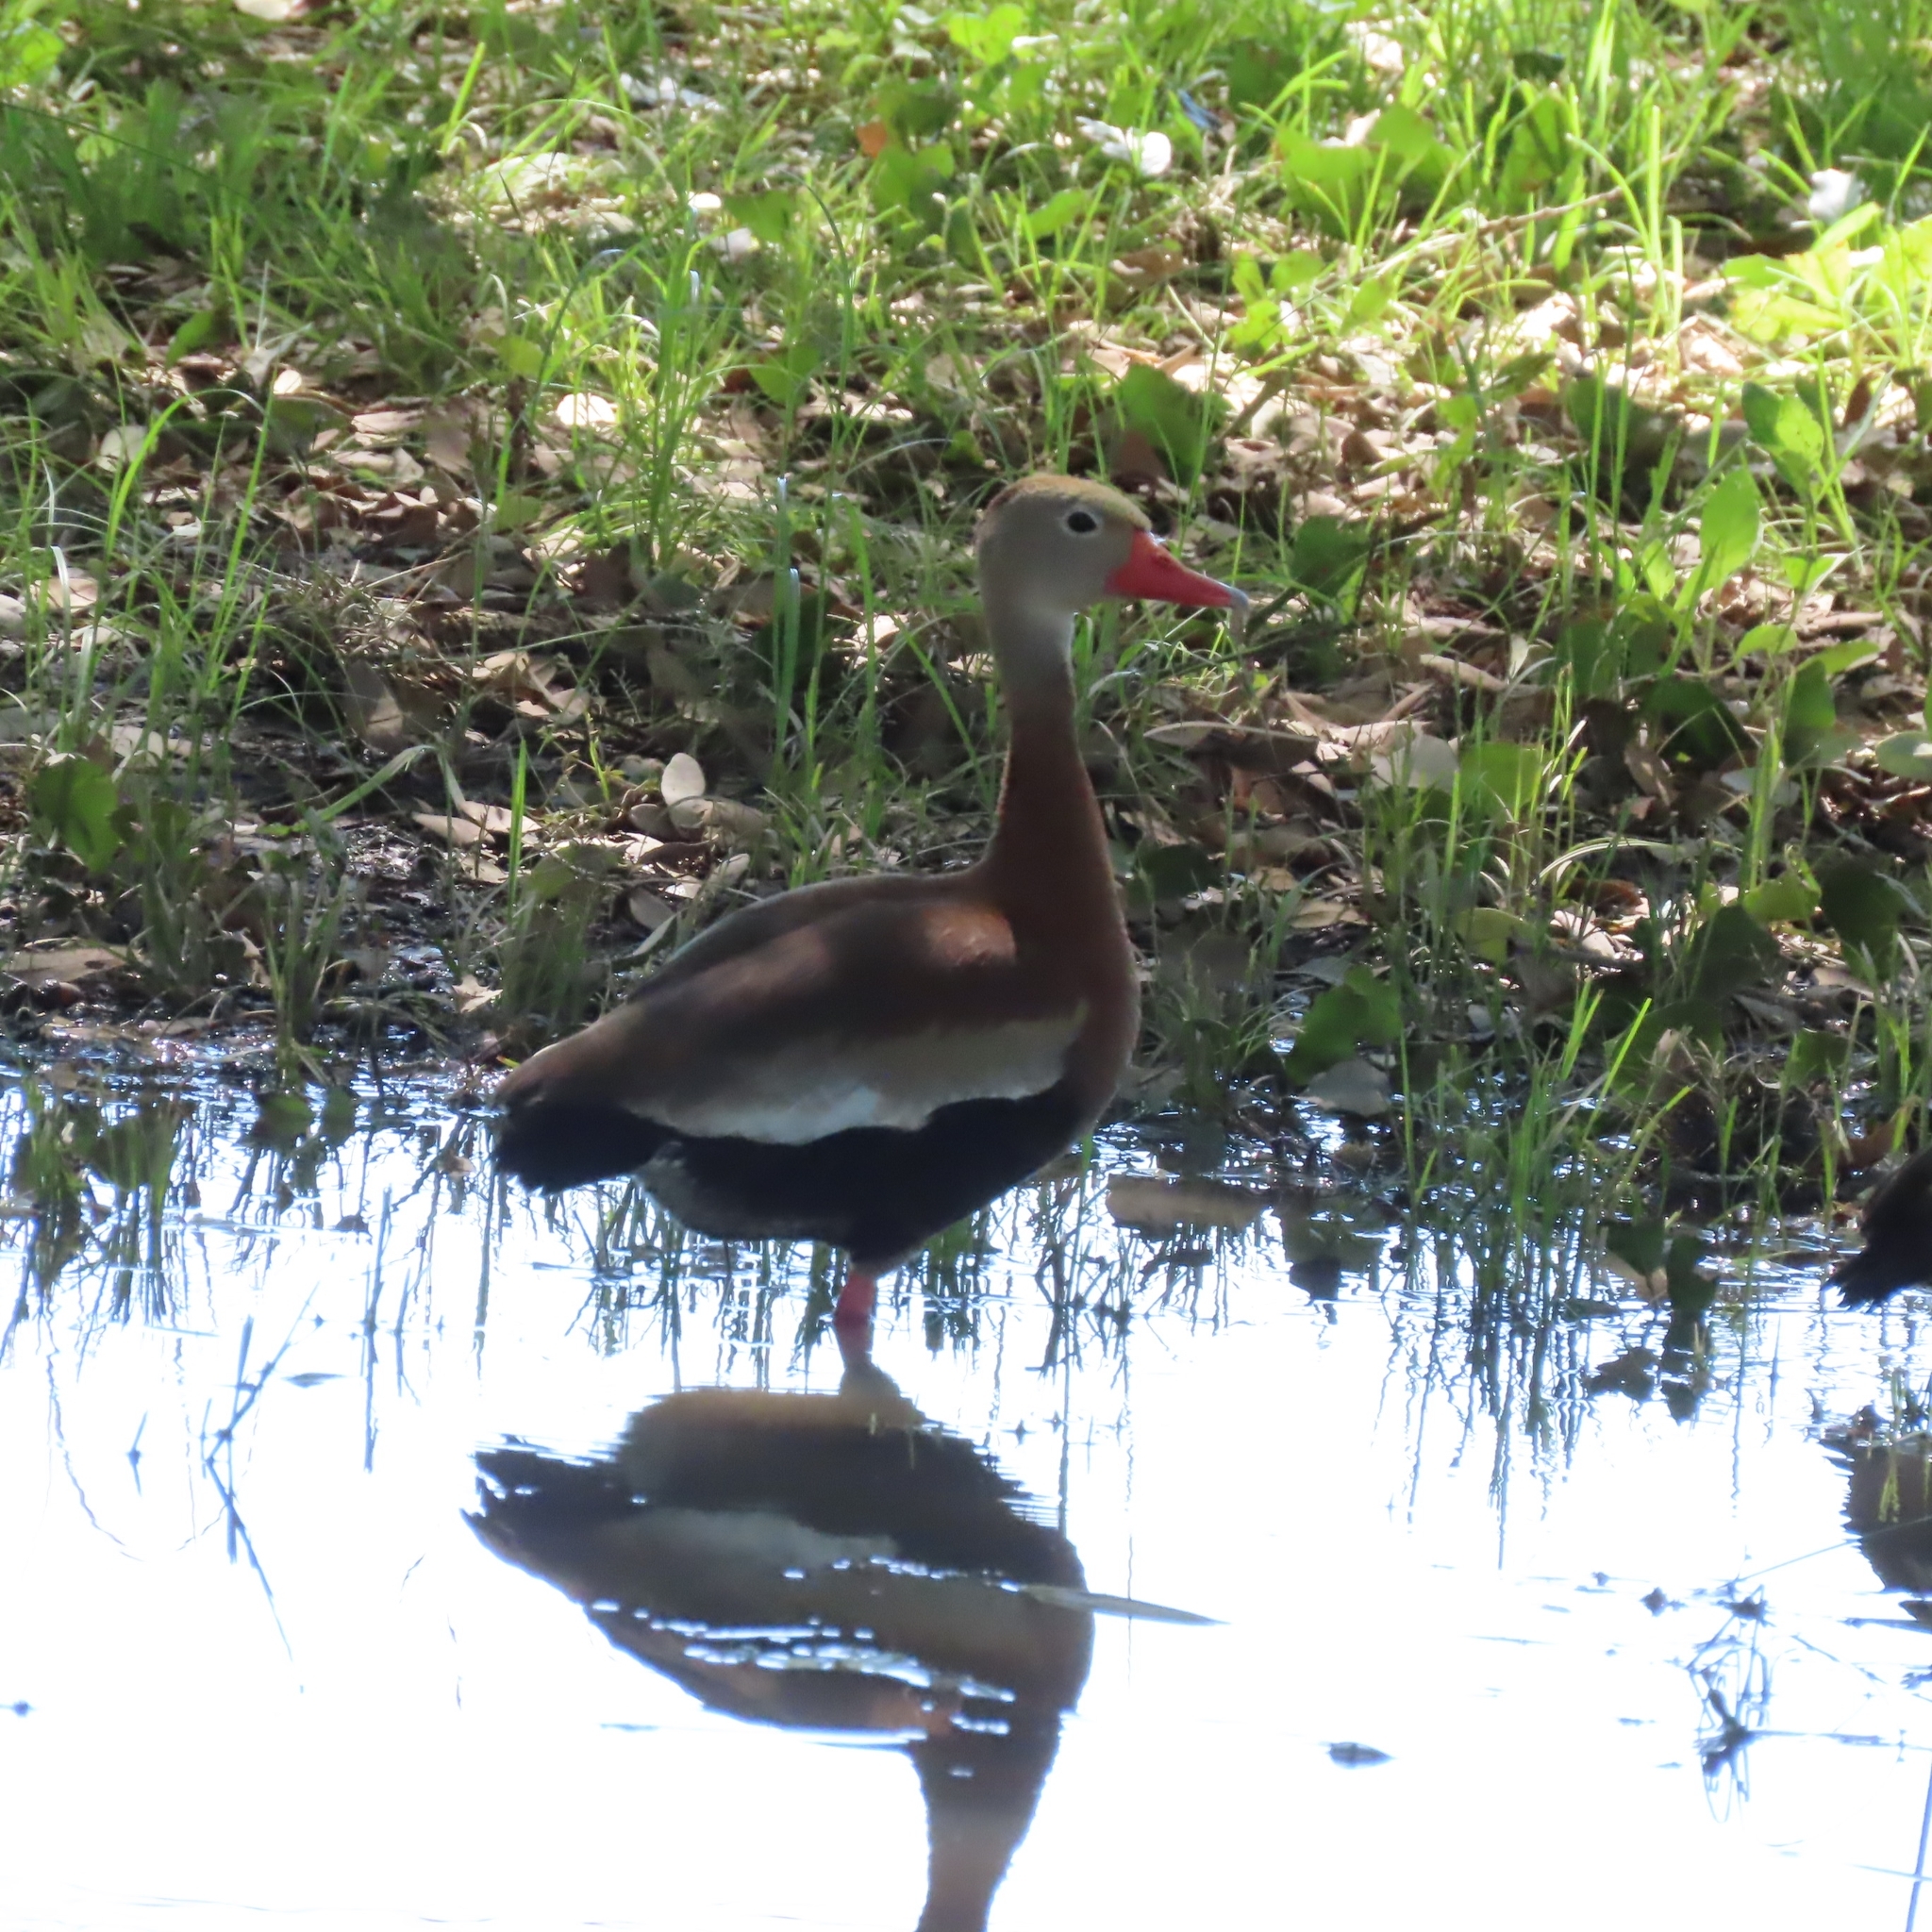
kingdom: Animalia
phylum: Chordata
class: Aves
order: Anseriformes
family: Anatidae
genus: Dendrocygna
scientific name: Dendrocygna autumnalis
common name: Black-bellied whistling duck
